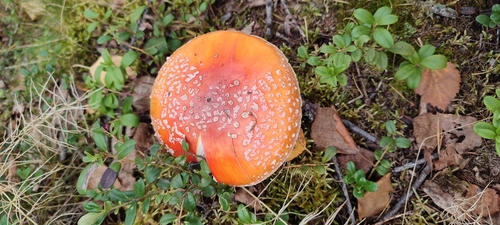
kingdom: Fungi
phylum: Basidiomycota
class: Agaricomycetes
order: Agaricales
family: Amanitaceae
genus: Amanita
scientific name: Amanita muscaria
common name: Fly agaric
